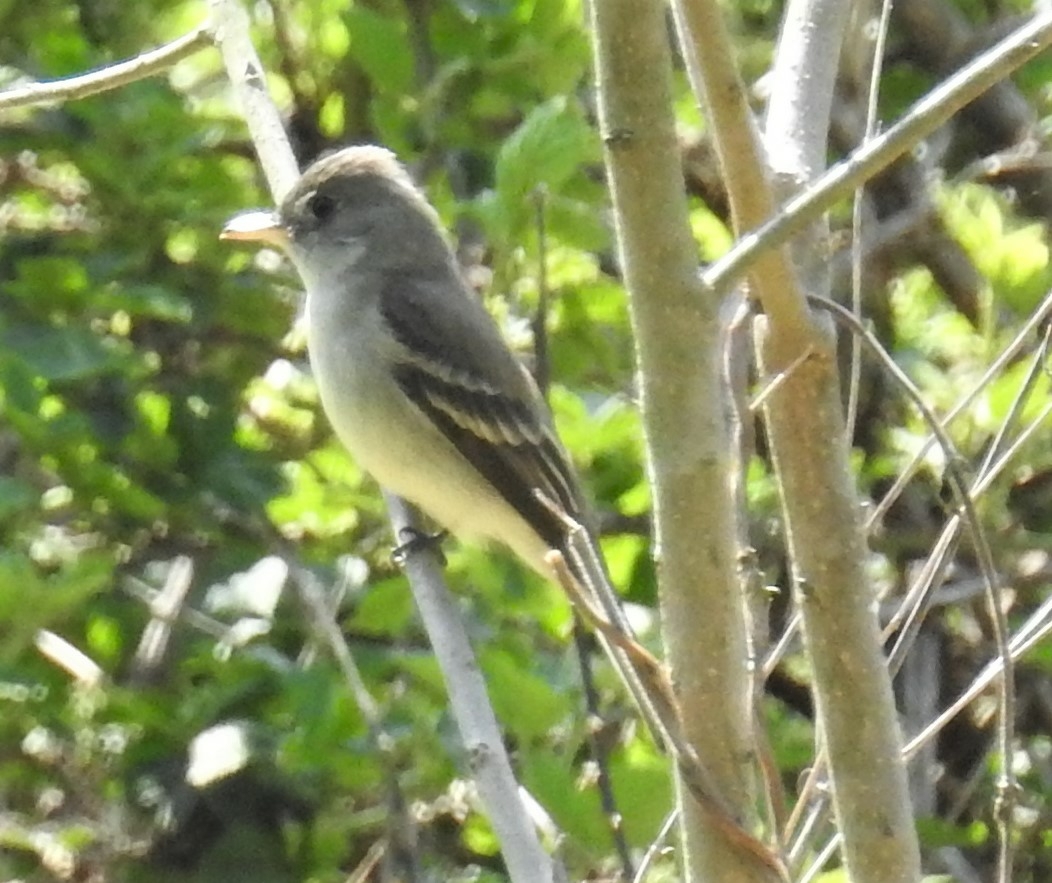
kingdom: Animalia
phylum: Chordata
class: Aves
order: Passeriformes
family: Tyrannidae
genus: Contopus
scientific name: Contopus virens
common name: Eastern wood-pewee
